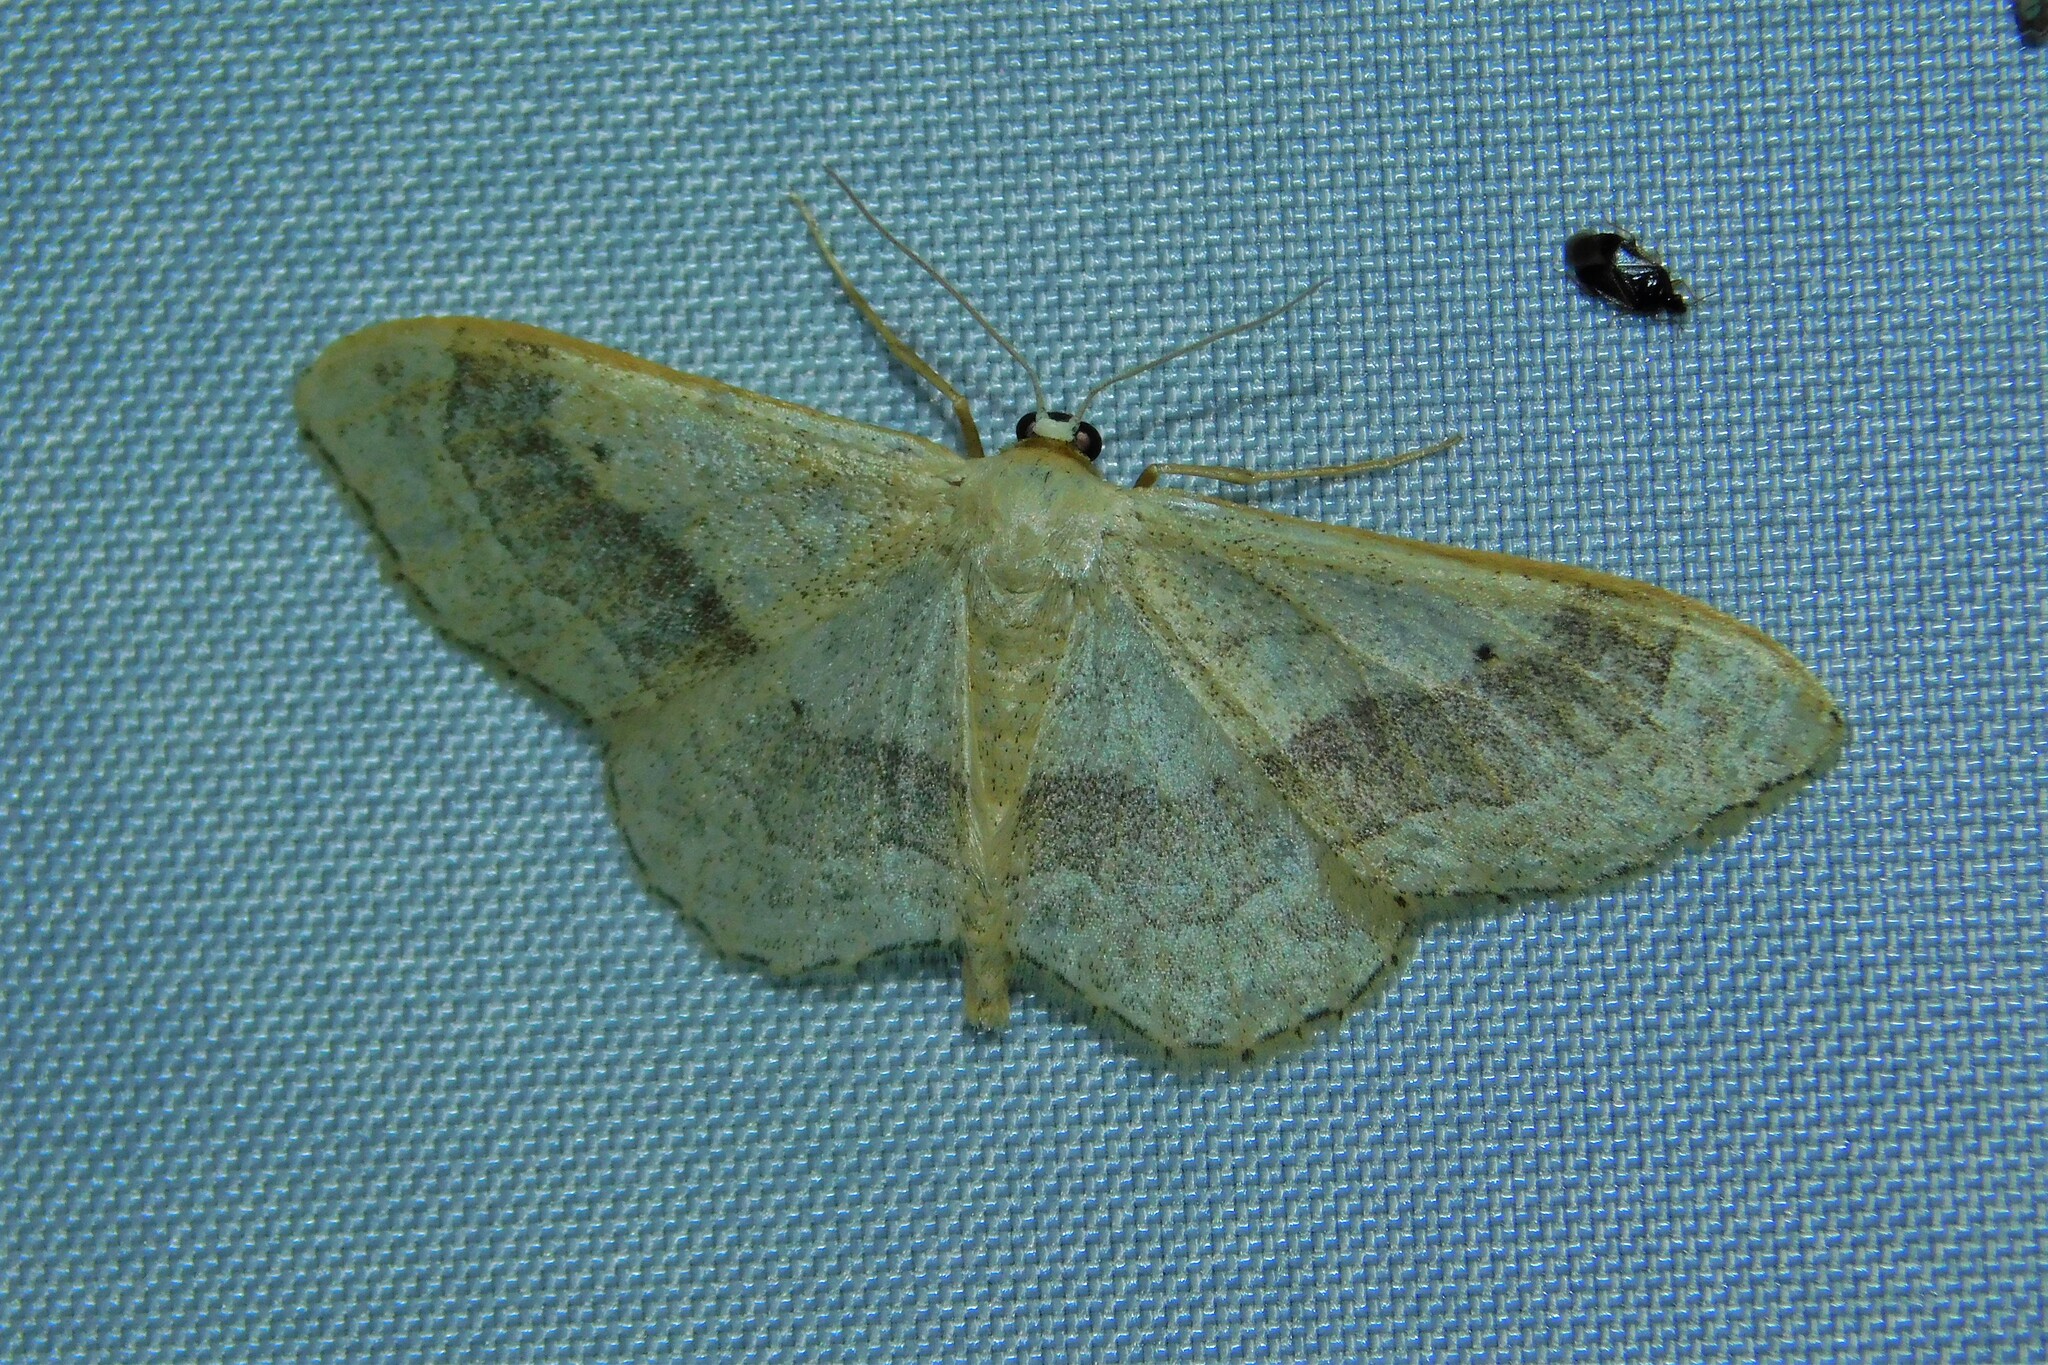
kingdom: Animalia
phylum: Arthropoda
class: Insecta
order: Lepidoptera
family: Geometridae
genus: Idaea
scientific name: Idaea aversata
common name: Riband wave
